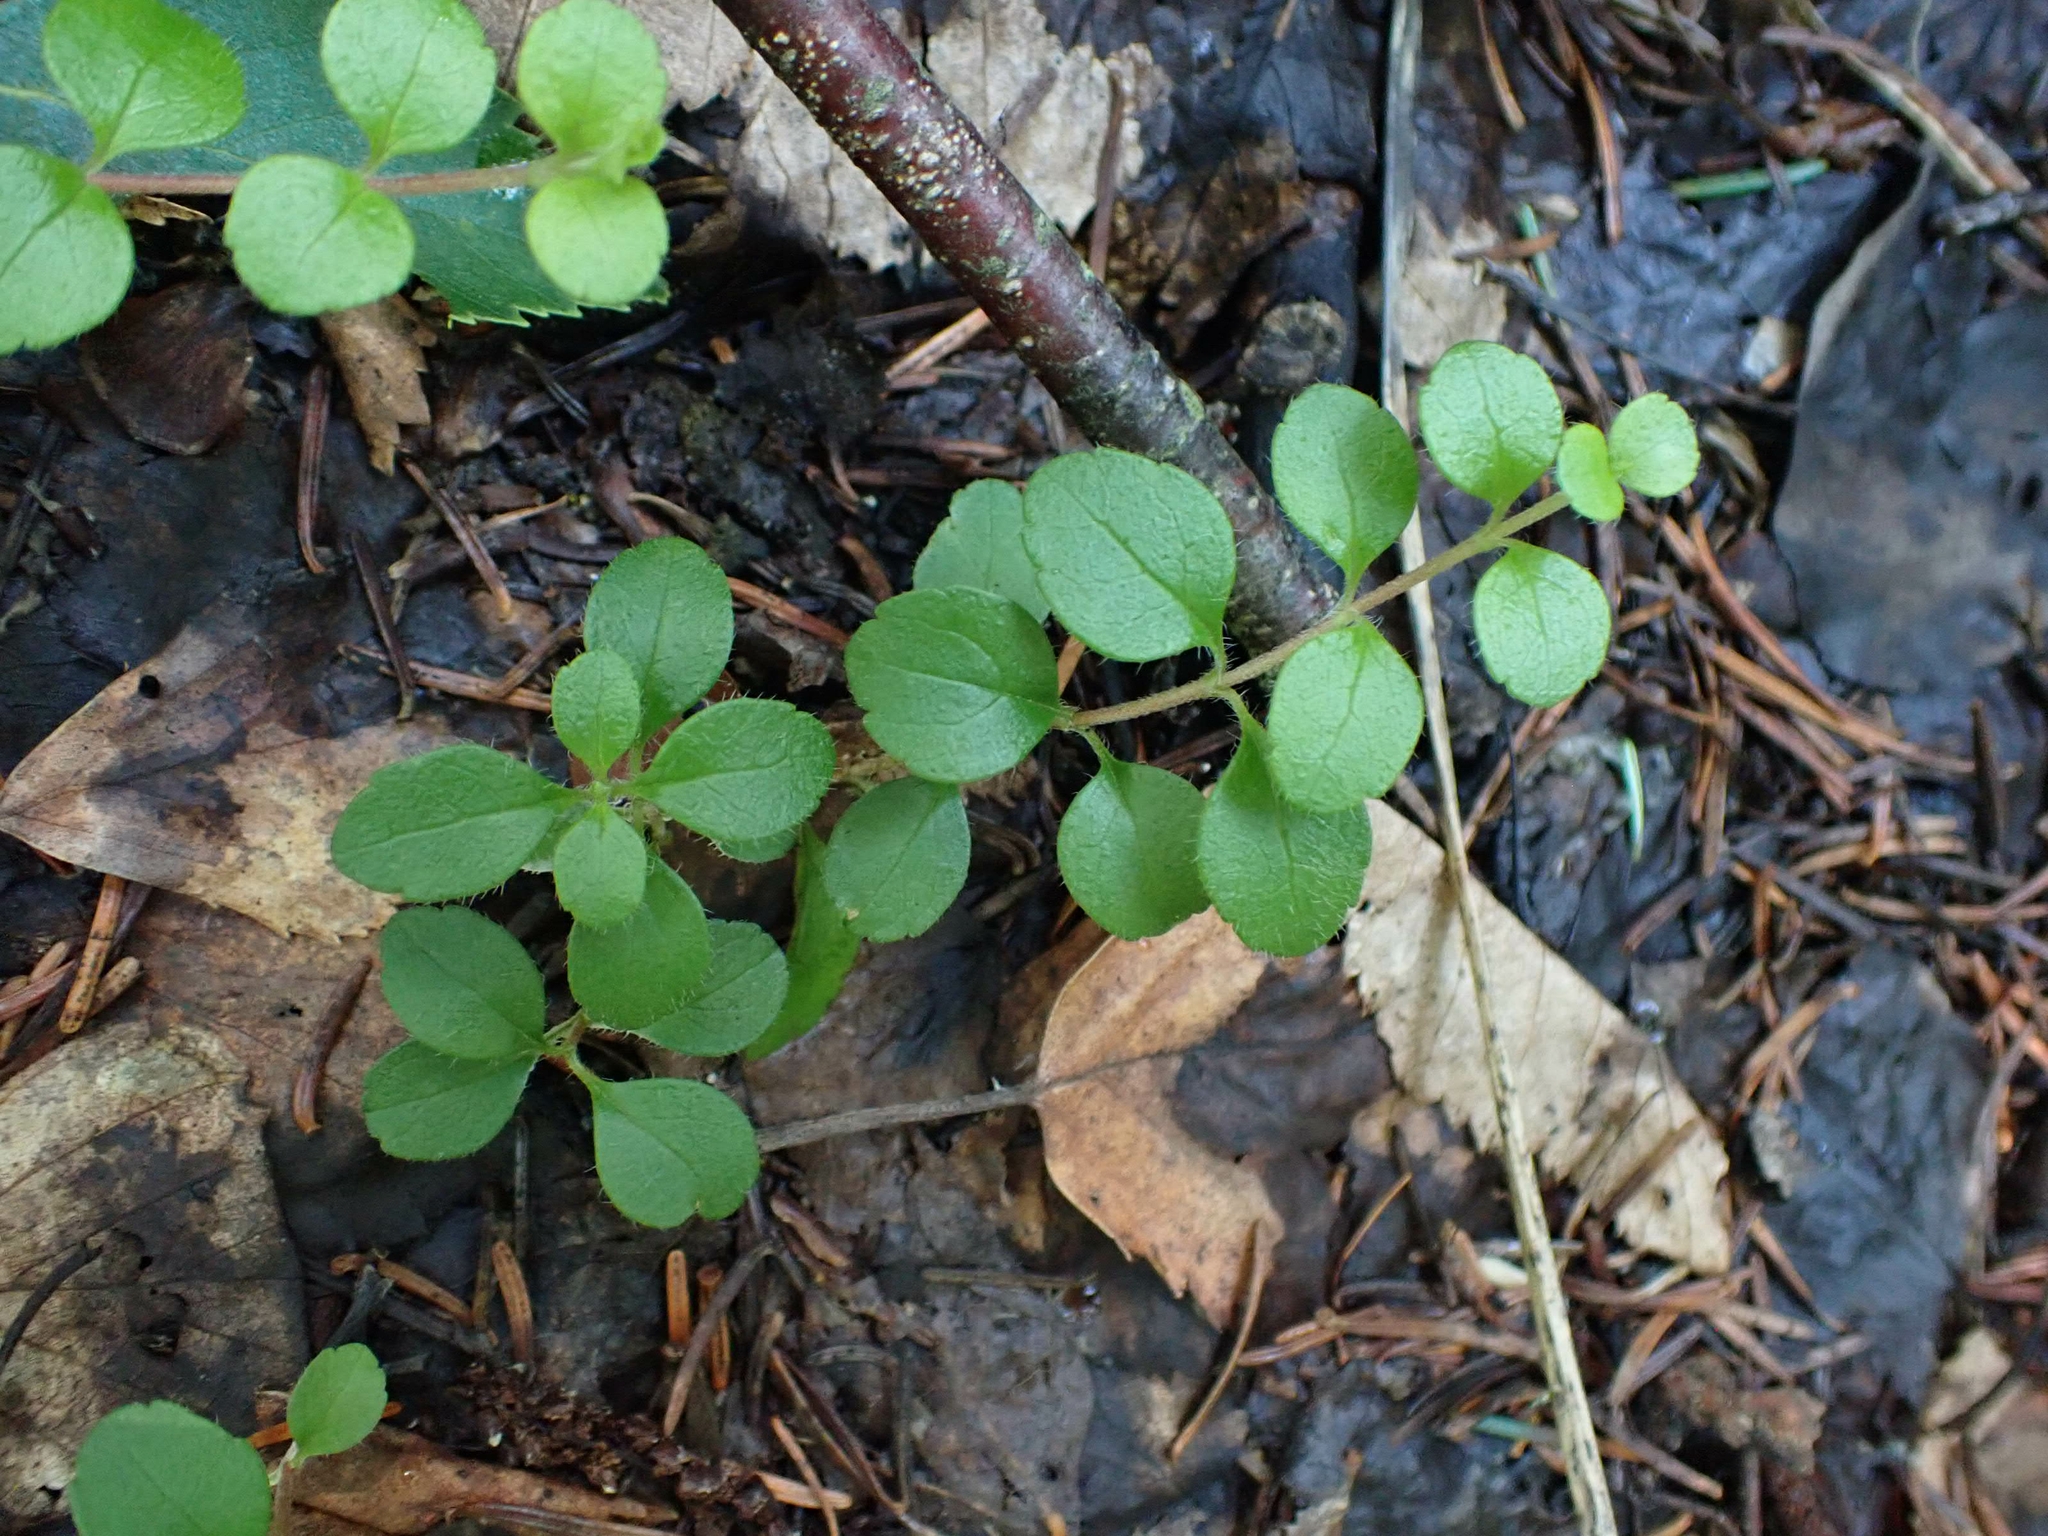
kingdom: Plantae
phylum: Tracheophyta
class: Magnoliopsida
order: Dipsacales
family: Caprifoliaceae
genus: Linnaea
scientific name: Linnaea borealis
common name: Twinflower
